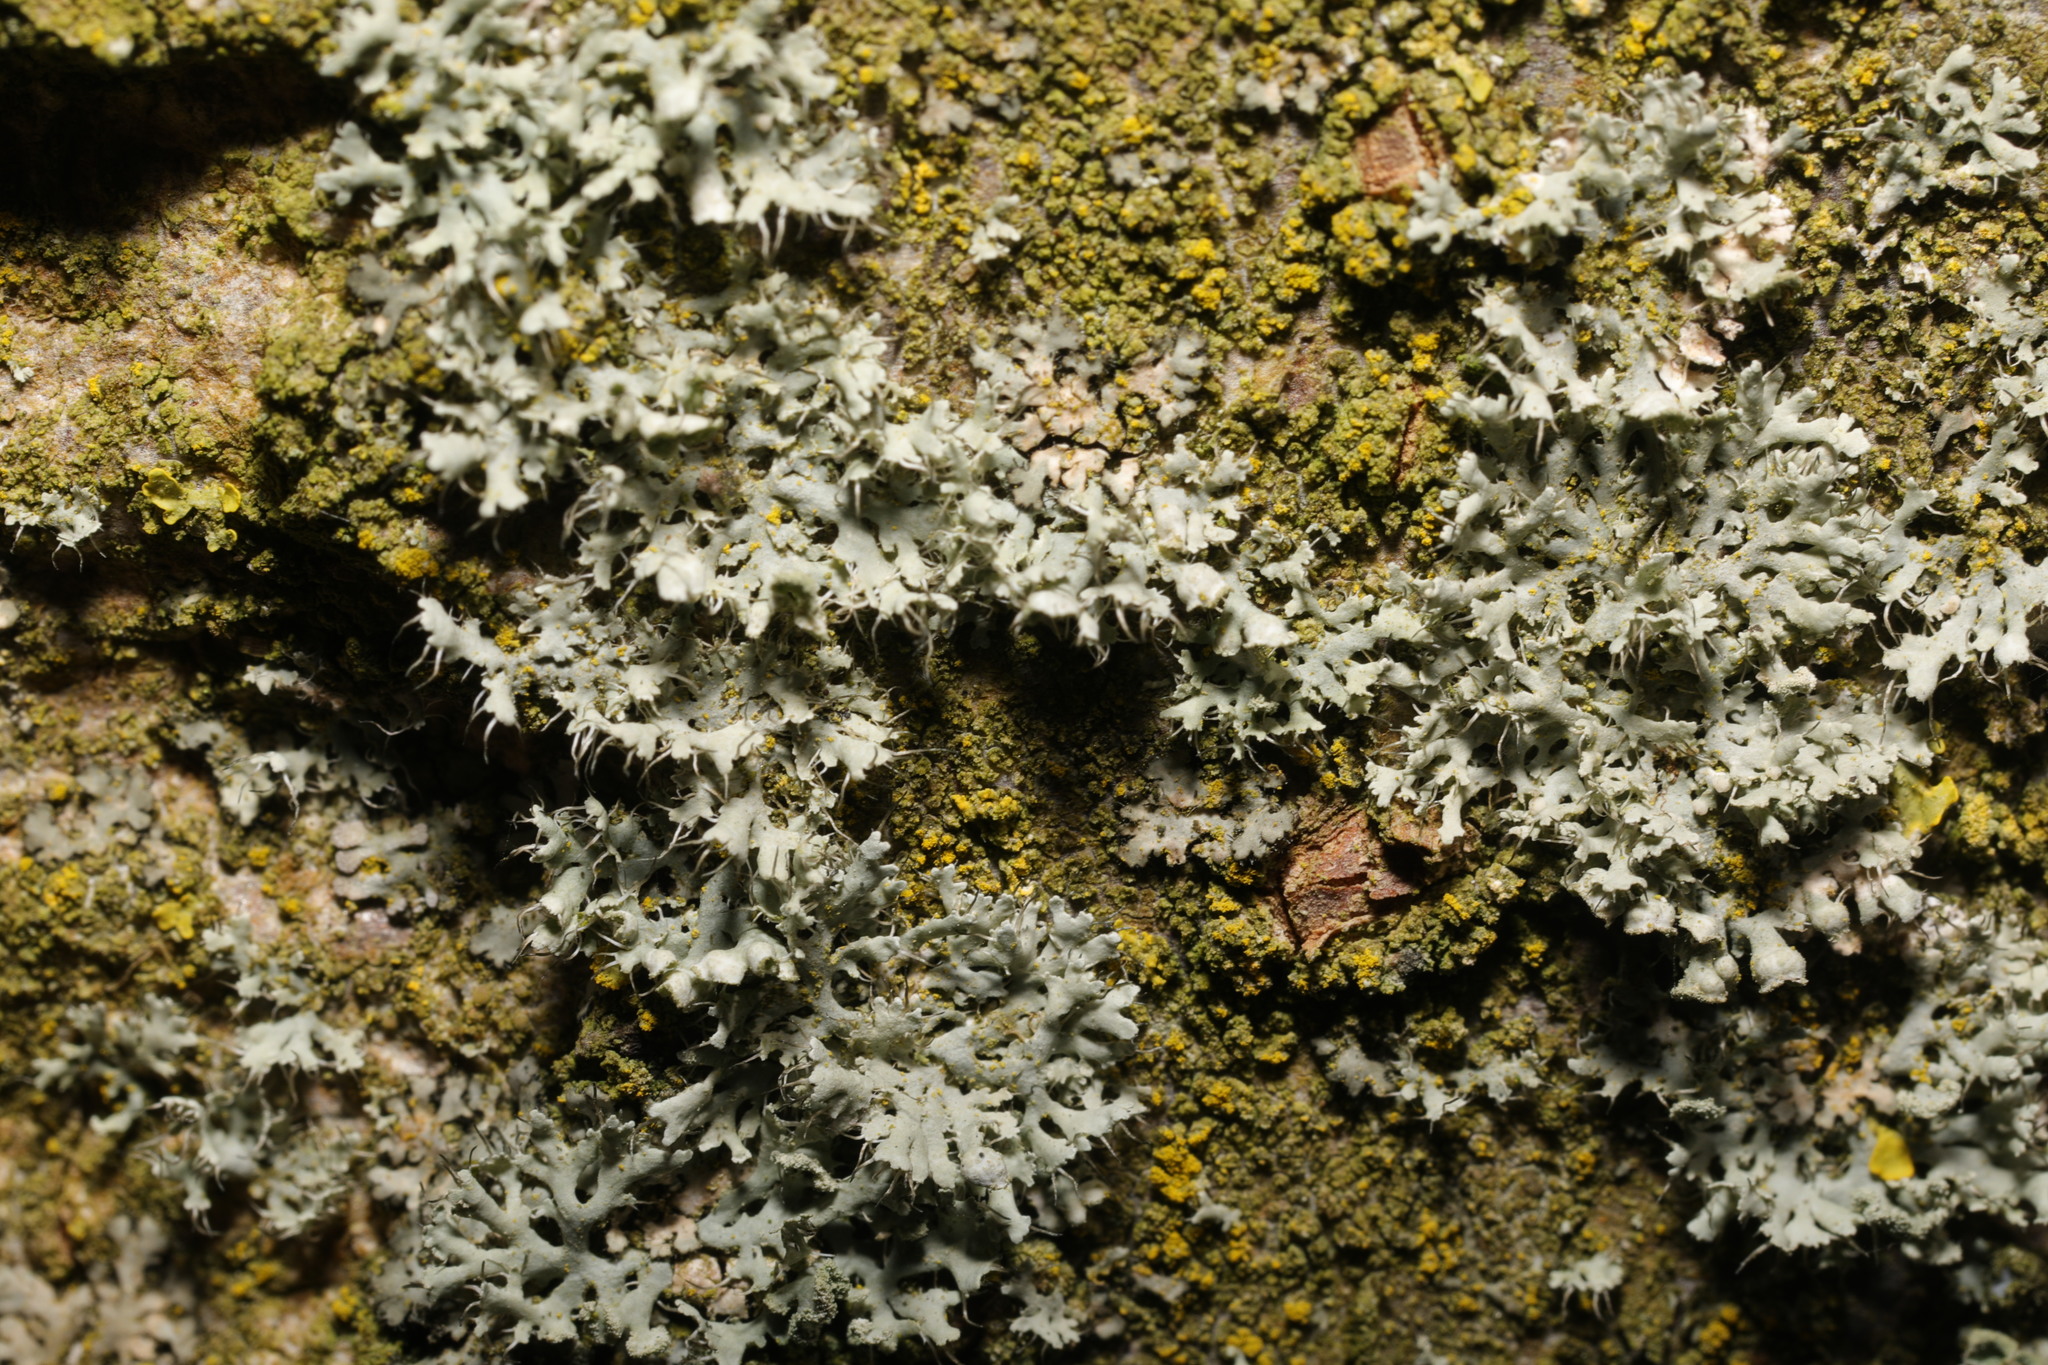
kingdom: Fungi
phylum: Ascomycota
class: Lecanoromycetes
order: Caliciales
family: Physciaceae
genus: Physcia
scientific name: Physcia adscendens
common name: Hooded rosette lichen
